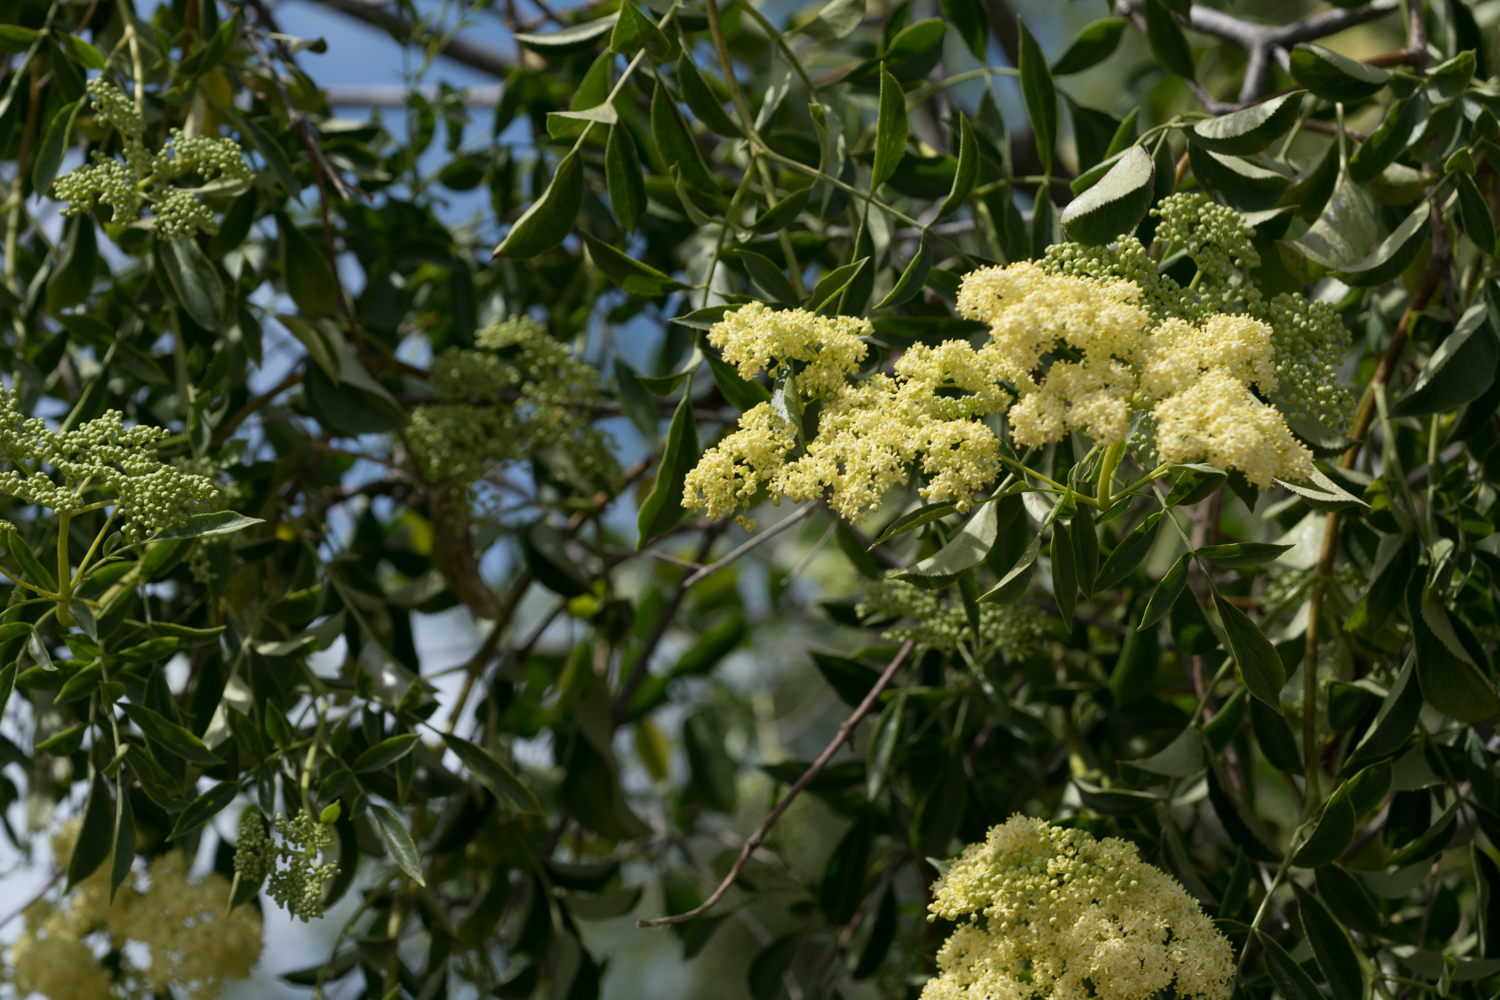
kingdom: Plantae
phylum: Tracheophyta
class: Magnoliopsida
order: Dipsacales
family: Viburnaceae
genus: Sambucus
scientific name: Sambucus cerulea
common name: Blue elder
